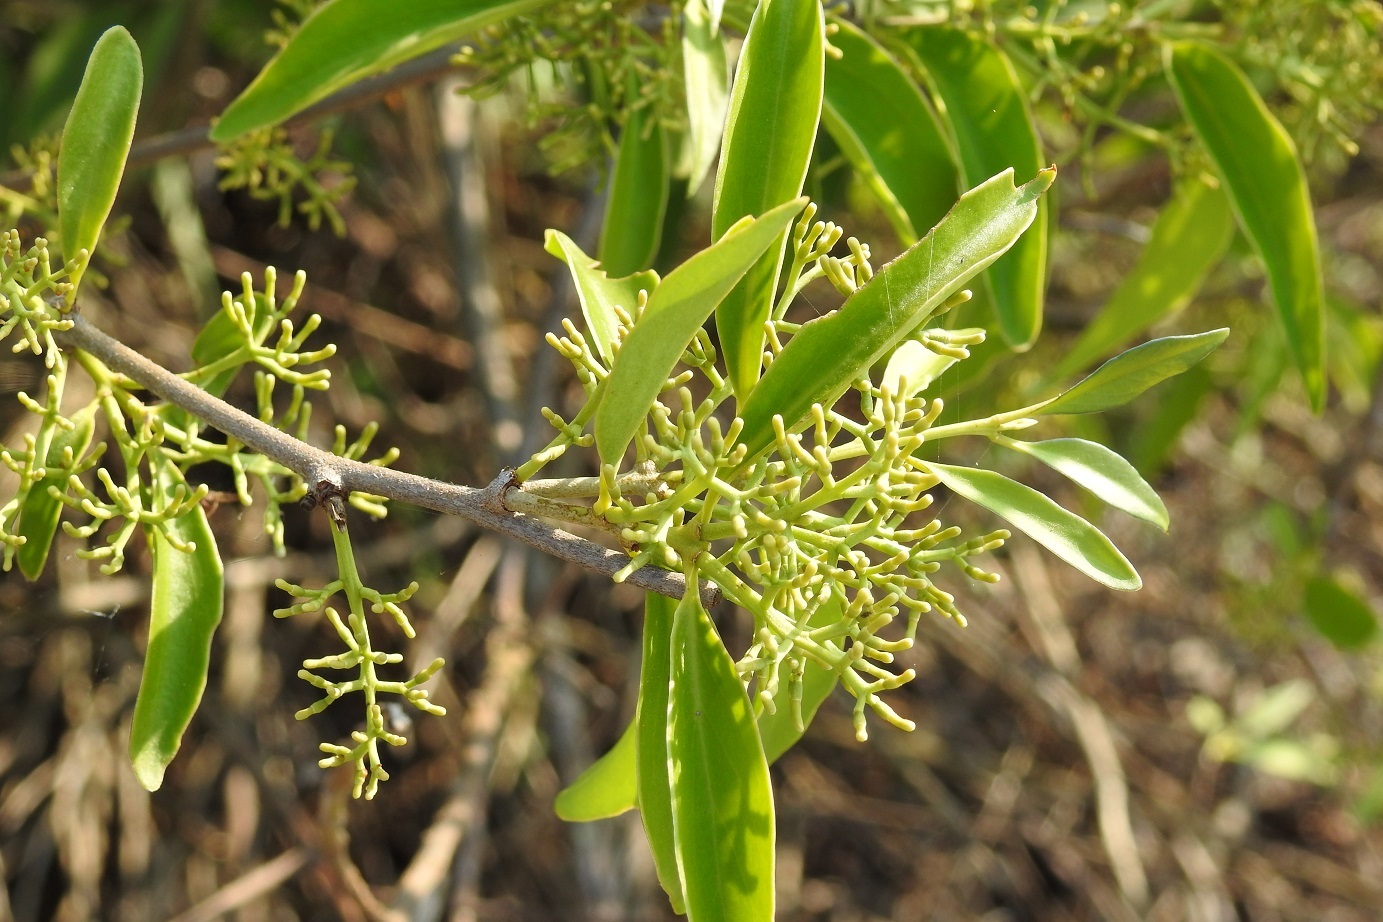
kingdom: Plantae
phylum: Tracheophyta
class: Magnoliopsida
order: Santalales
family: Loranthaceae
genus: Struthanthus
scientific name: Struthanthus quercicola
